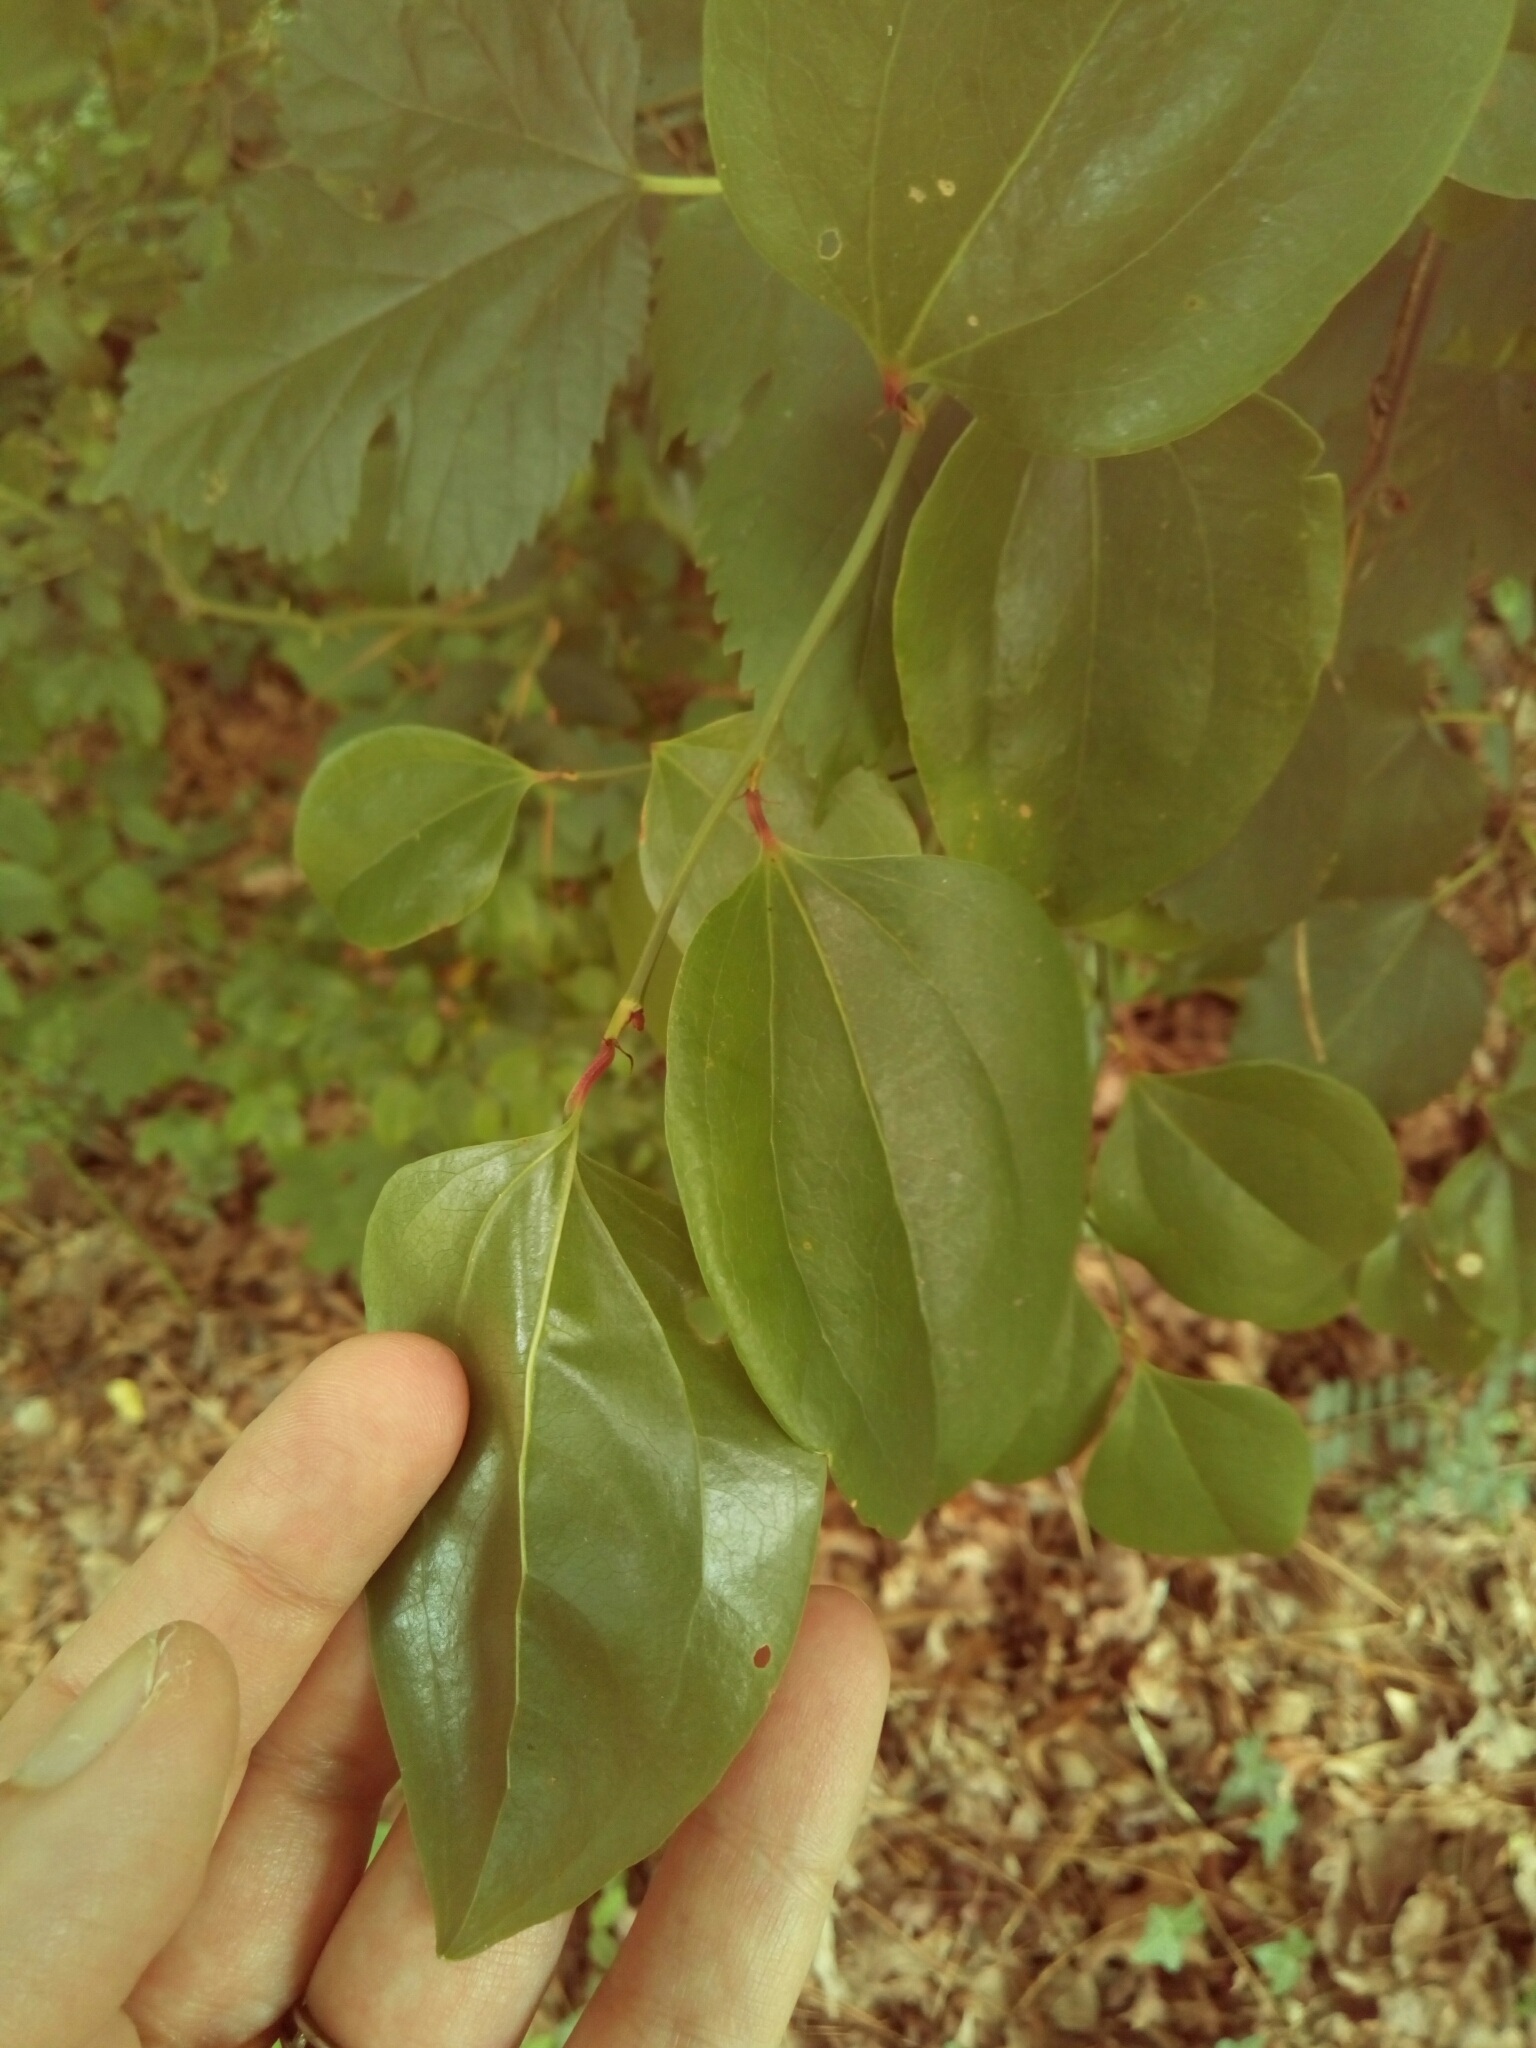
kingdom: Plantae
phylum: Tracheophyta
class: Liliopsida
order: Liliales
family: Smilacaceae
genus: Smilax
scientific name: Smilax rotundifolia
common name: Bullbriar
